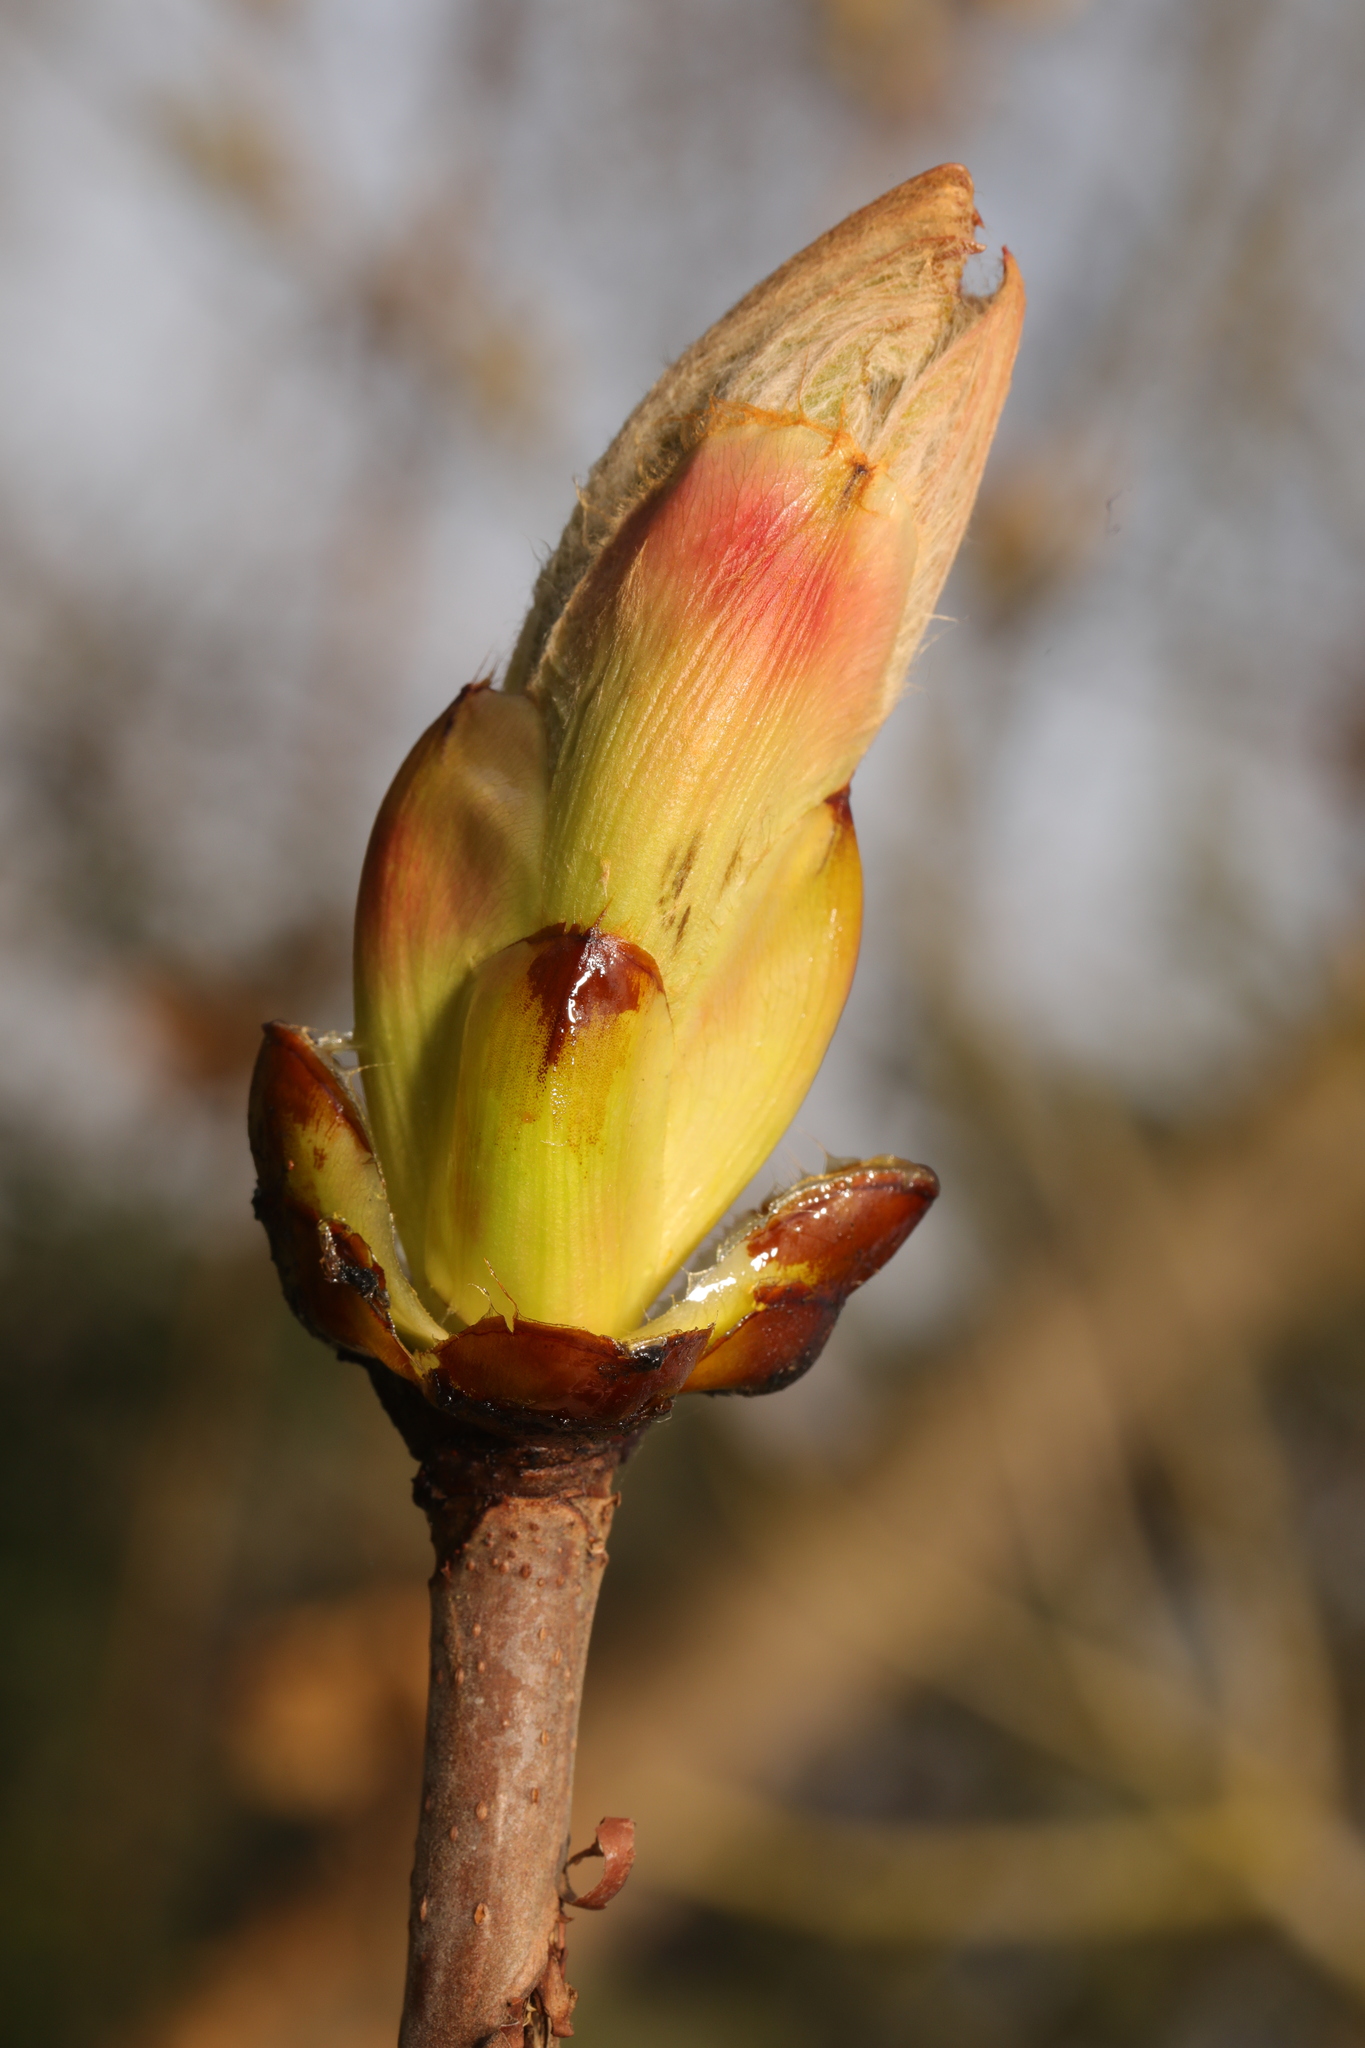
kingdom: Plantae
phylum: Tracheophyta
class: Magnoliopsida
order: Sapindales
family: Sapindaceae
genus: Aesculus
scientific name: Aesculus hippocastanum
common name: Horse-chestnut
